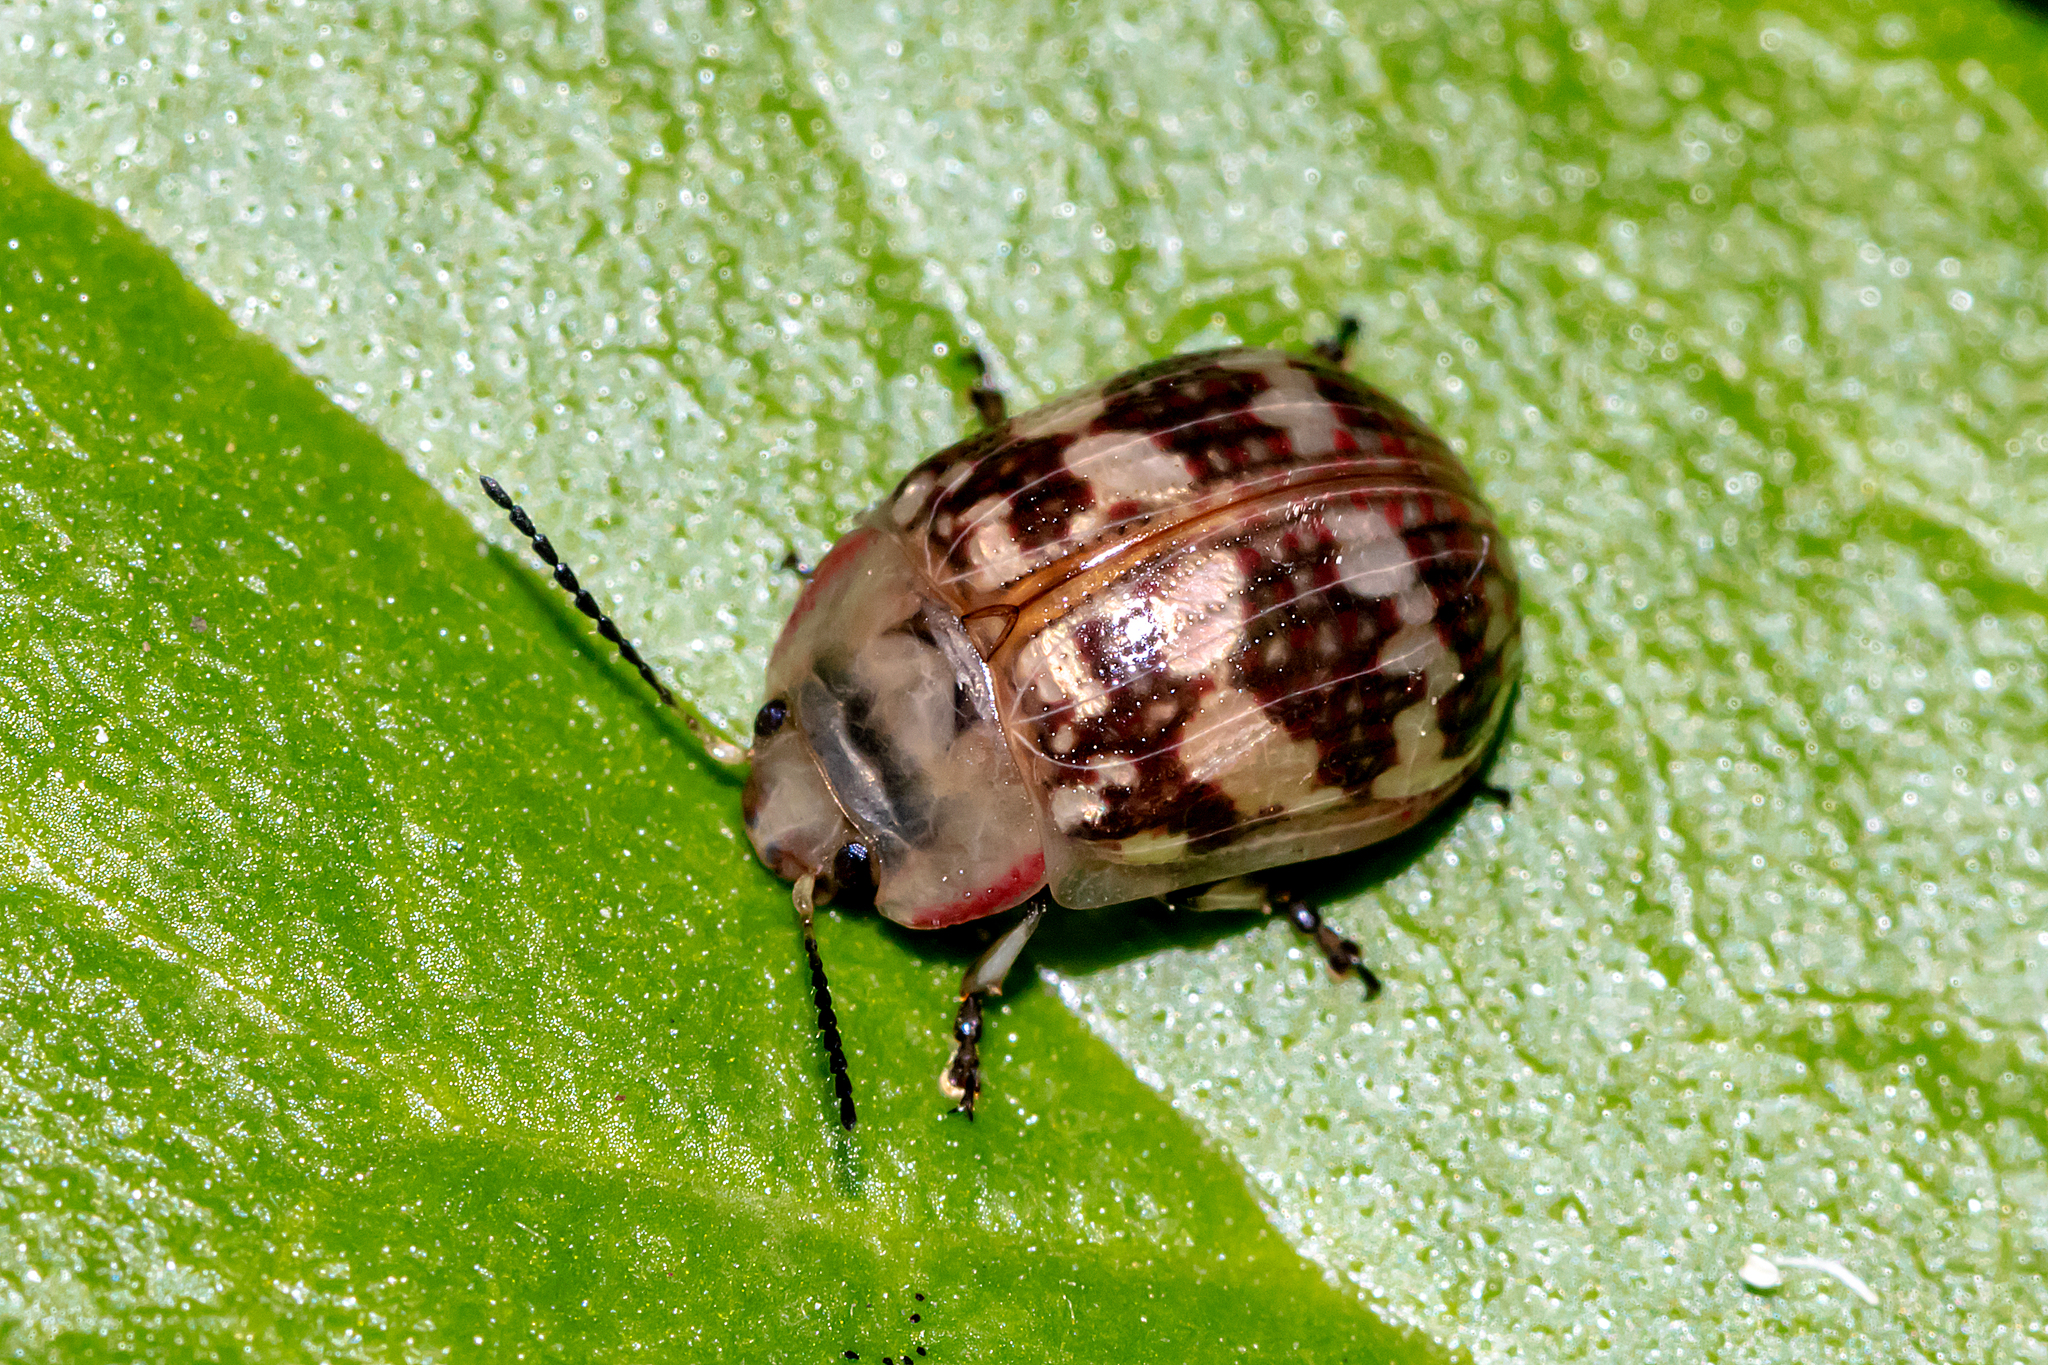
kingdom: Animalia
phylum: Arthropoda
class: Insecta
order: Coleoptera
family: Chrysomelidae
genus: Paropsis
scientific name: Paropsis
